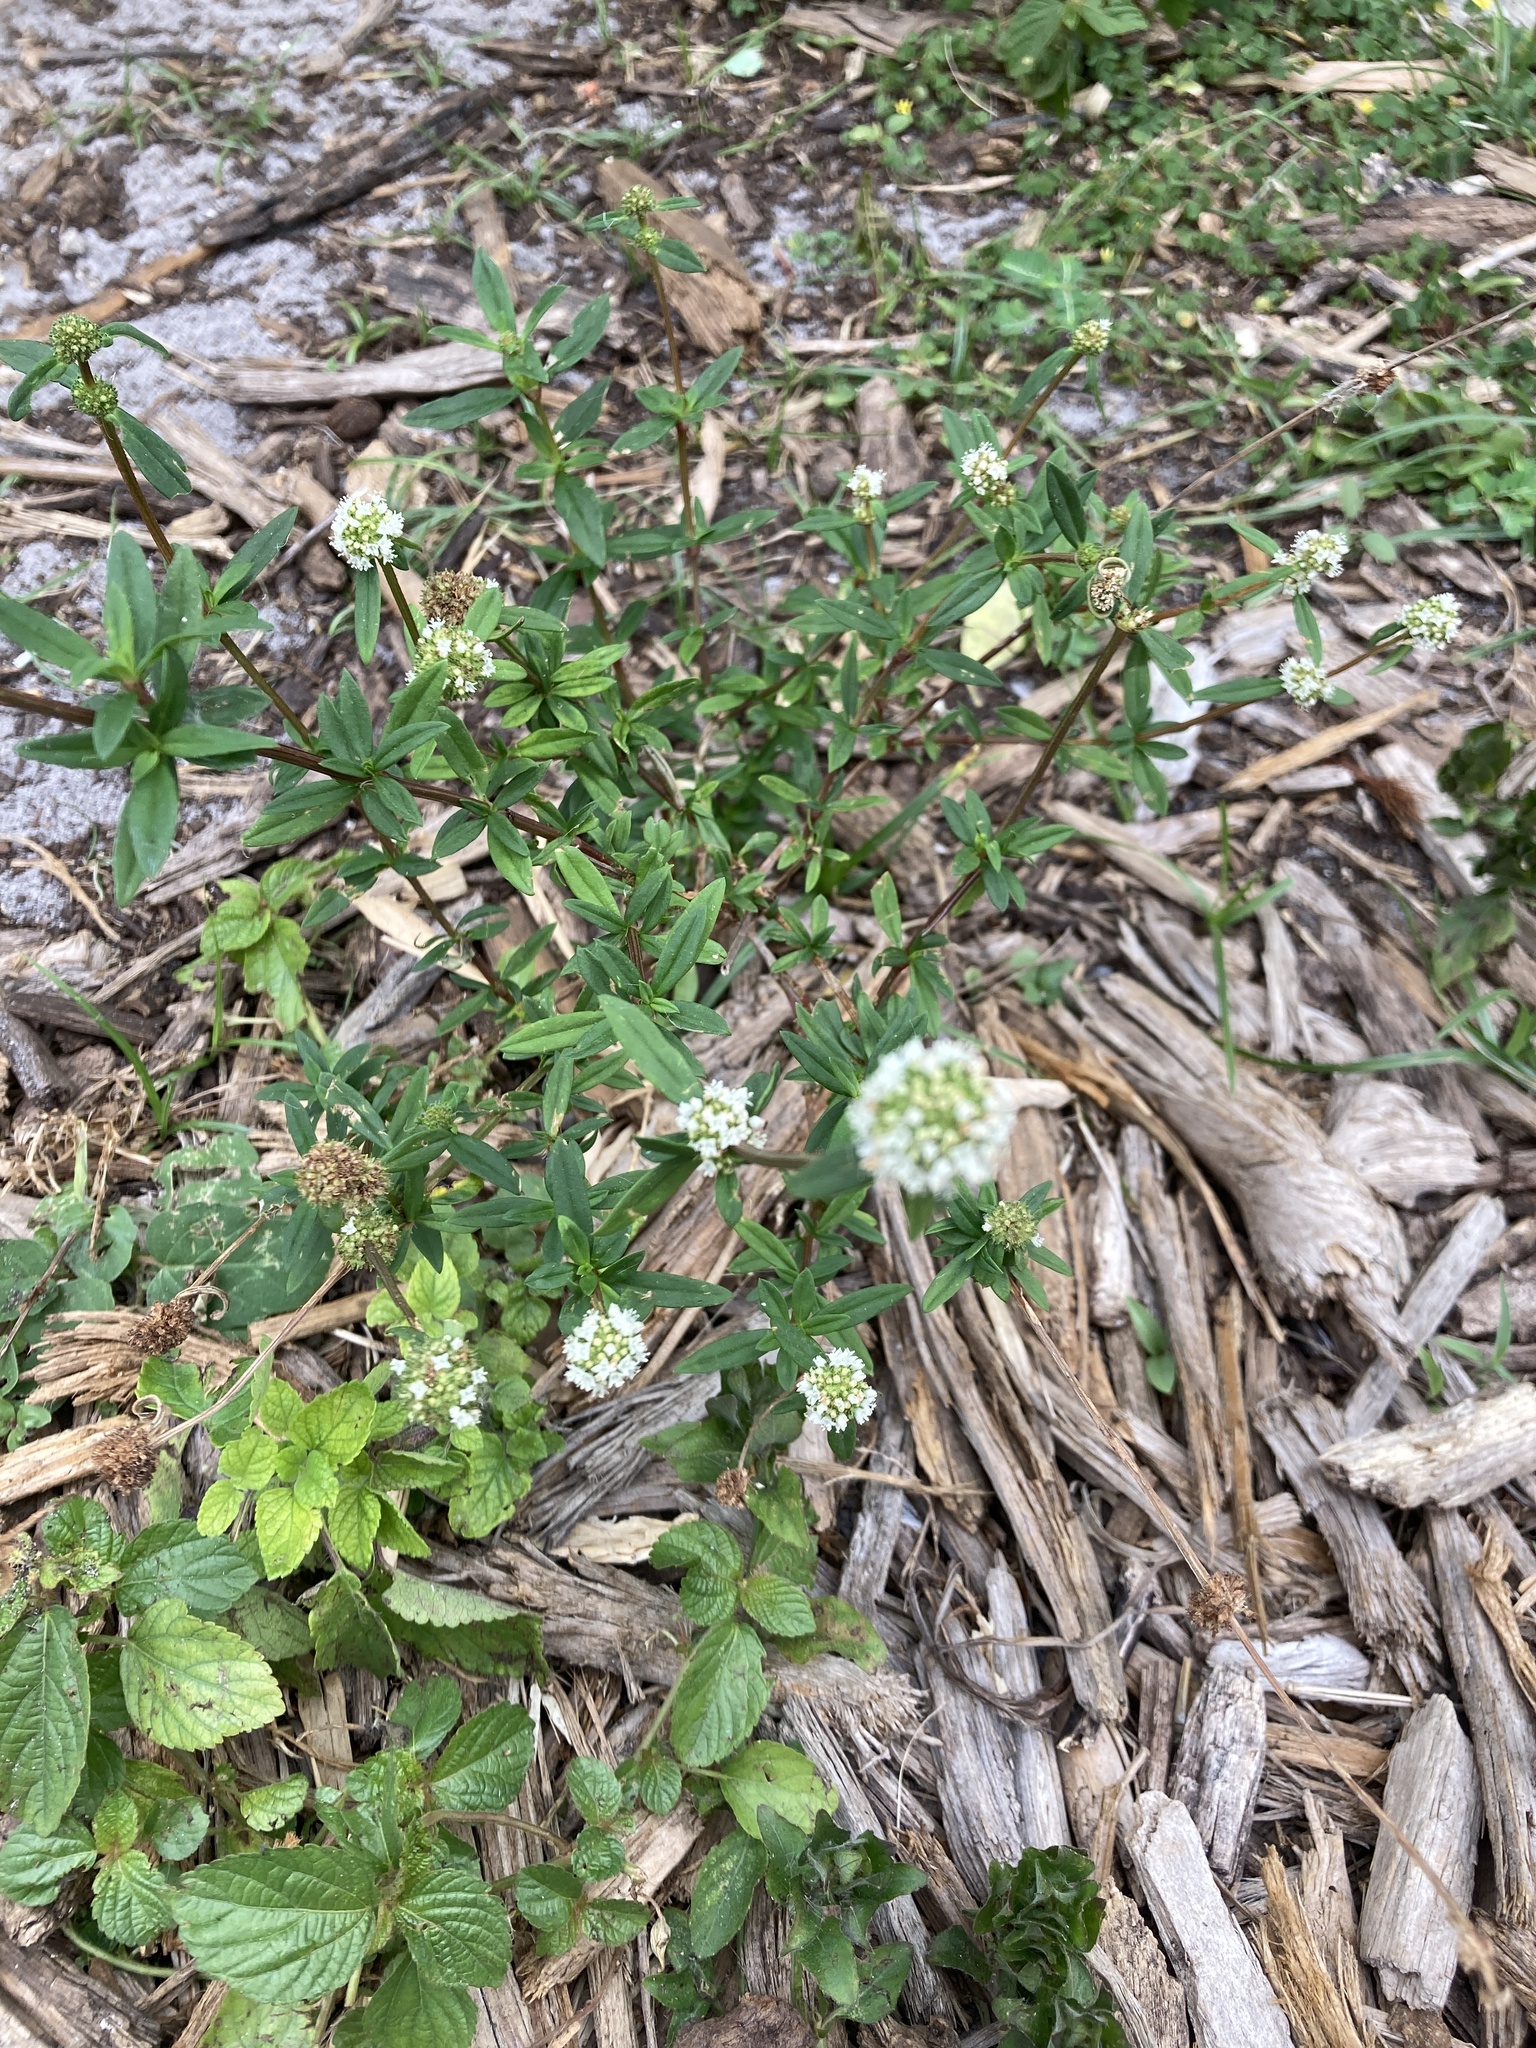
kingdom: Plantae
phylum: Tracheophyta
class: Magnoliopsida
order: Gentianales
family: Rubiaceae
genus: Spermacoce
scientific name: Spermacoce verticillata
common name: Shrubby false buttonweed
